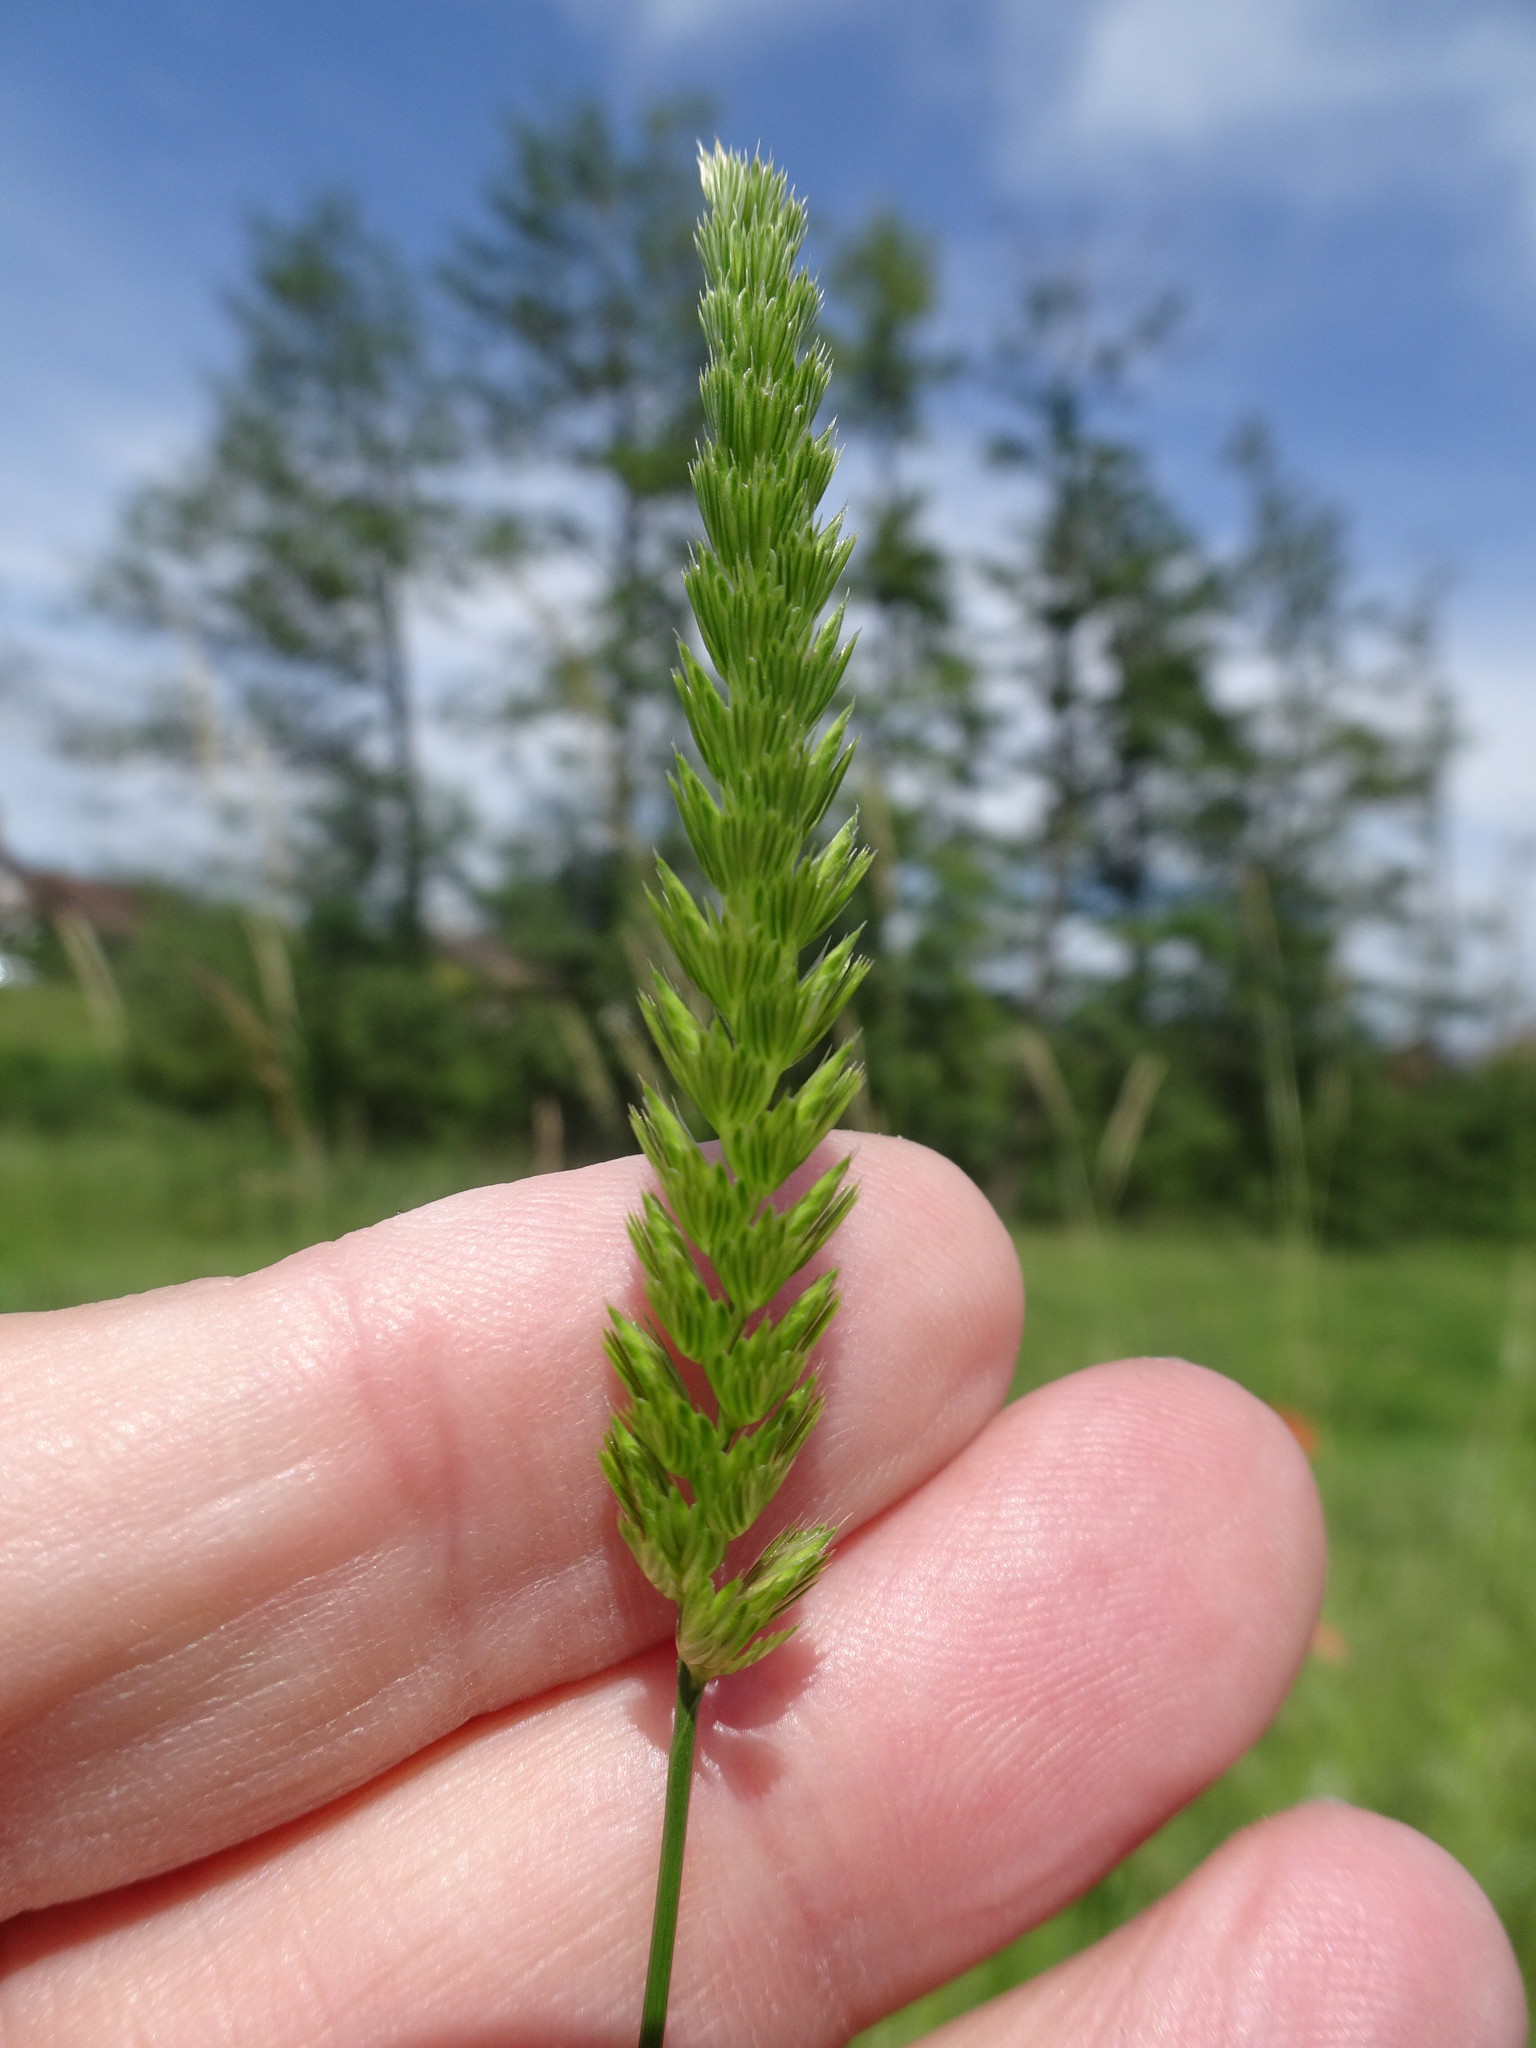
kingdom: Plantae
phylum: Tracheophyta
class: Liliopsida
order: Poales
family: Poaceae
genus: Cynosurus
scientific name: Cynosurus cristatus
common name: Crested dog's-tail
